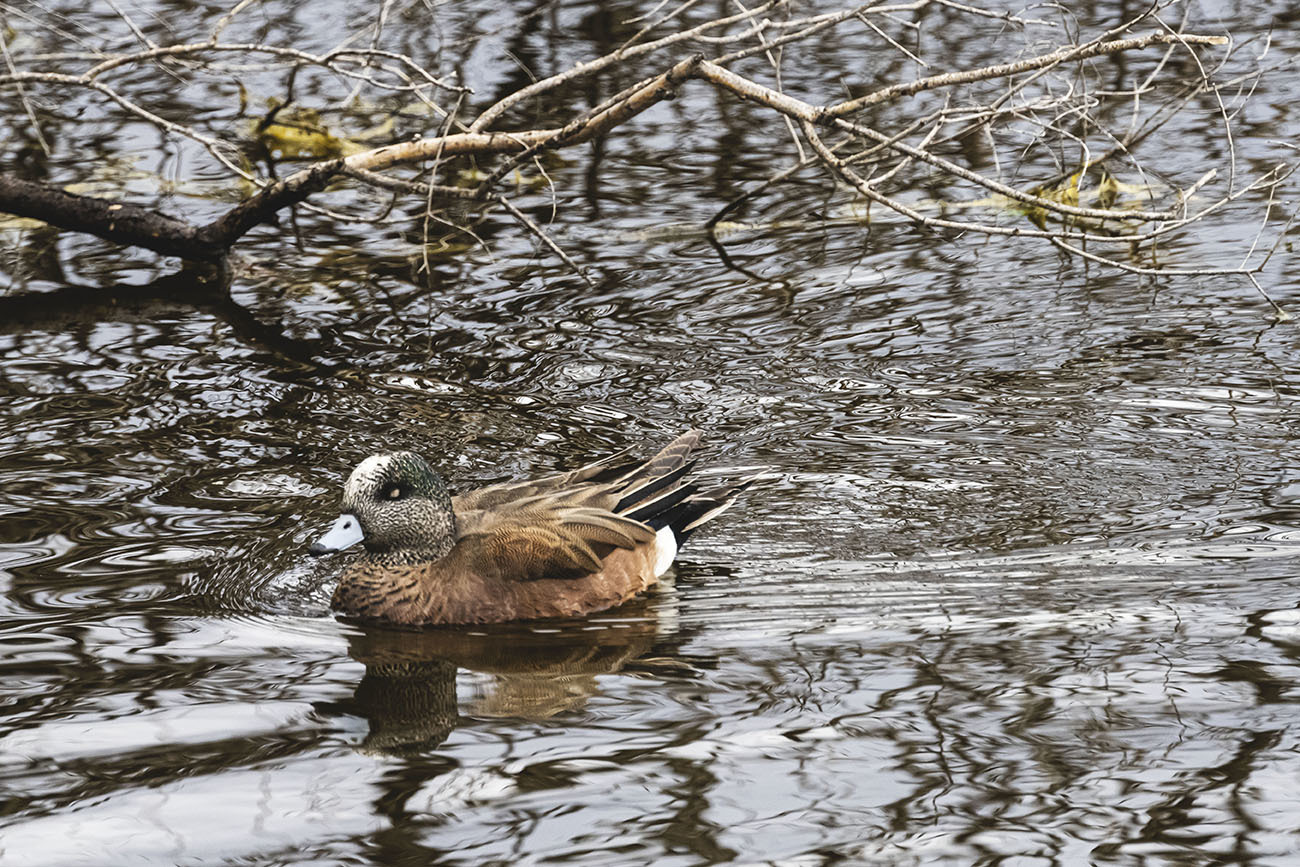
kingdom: Animalia
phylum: Chordata
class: Aves
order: Anseriformes
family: Anatidae
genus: Mareca
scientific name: Mareca americana
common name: American wigeon
